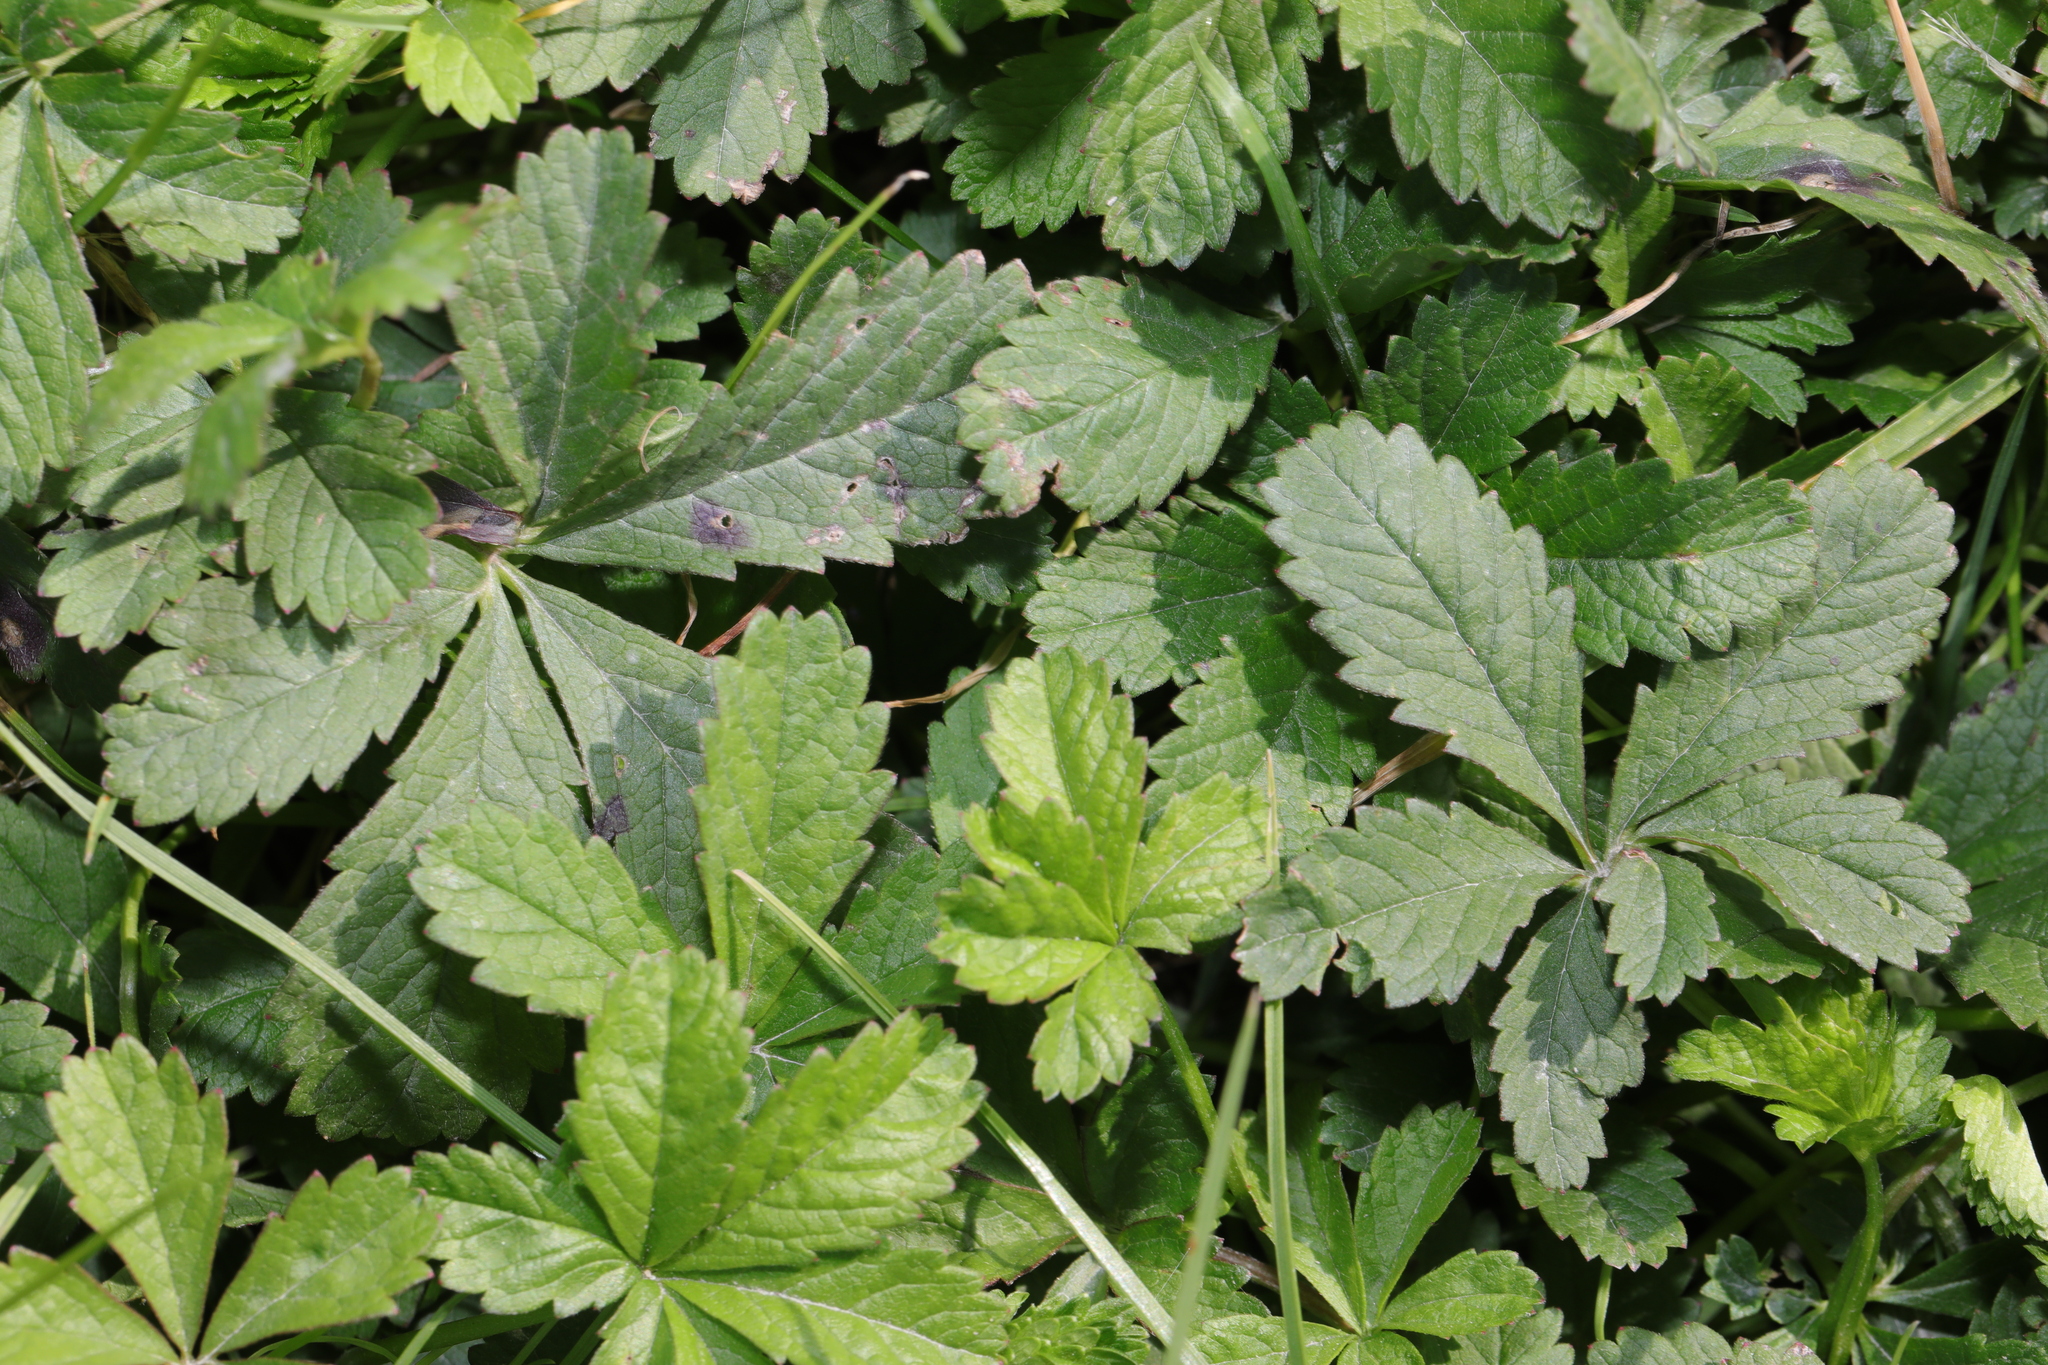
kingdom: Plantae
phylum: Tracheophyta
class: Magnoliopsida
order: Rosales
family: Rosaceae
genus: Potentilla
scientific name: Potentilla reptans
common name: Creeping cinquefoil
